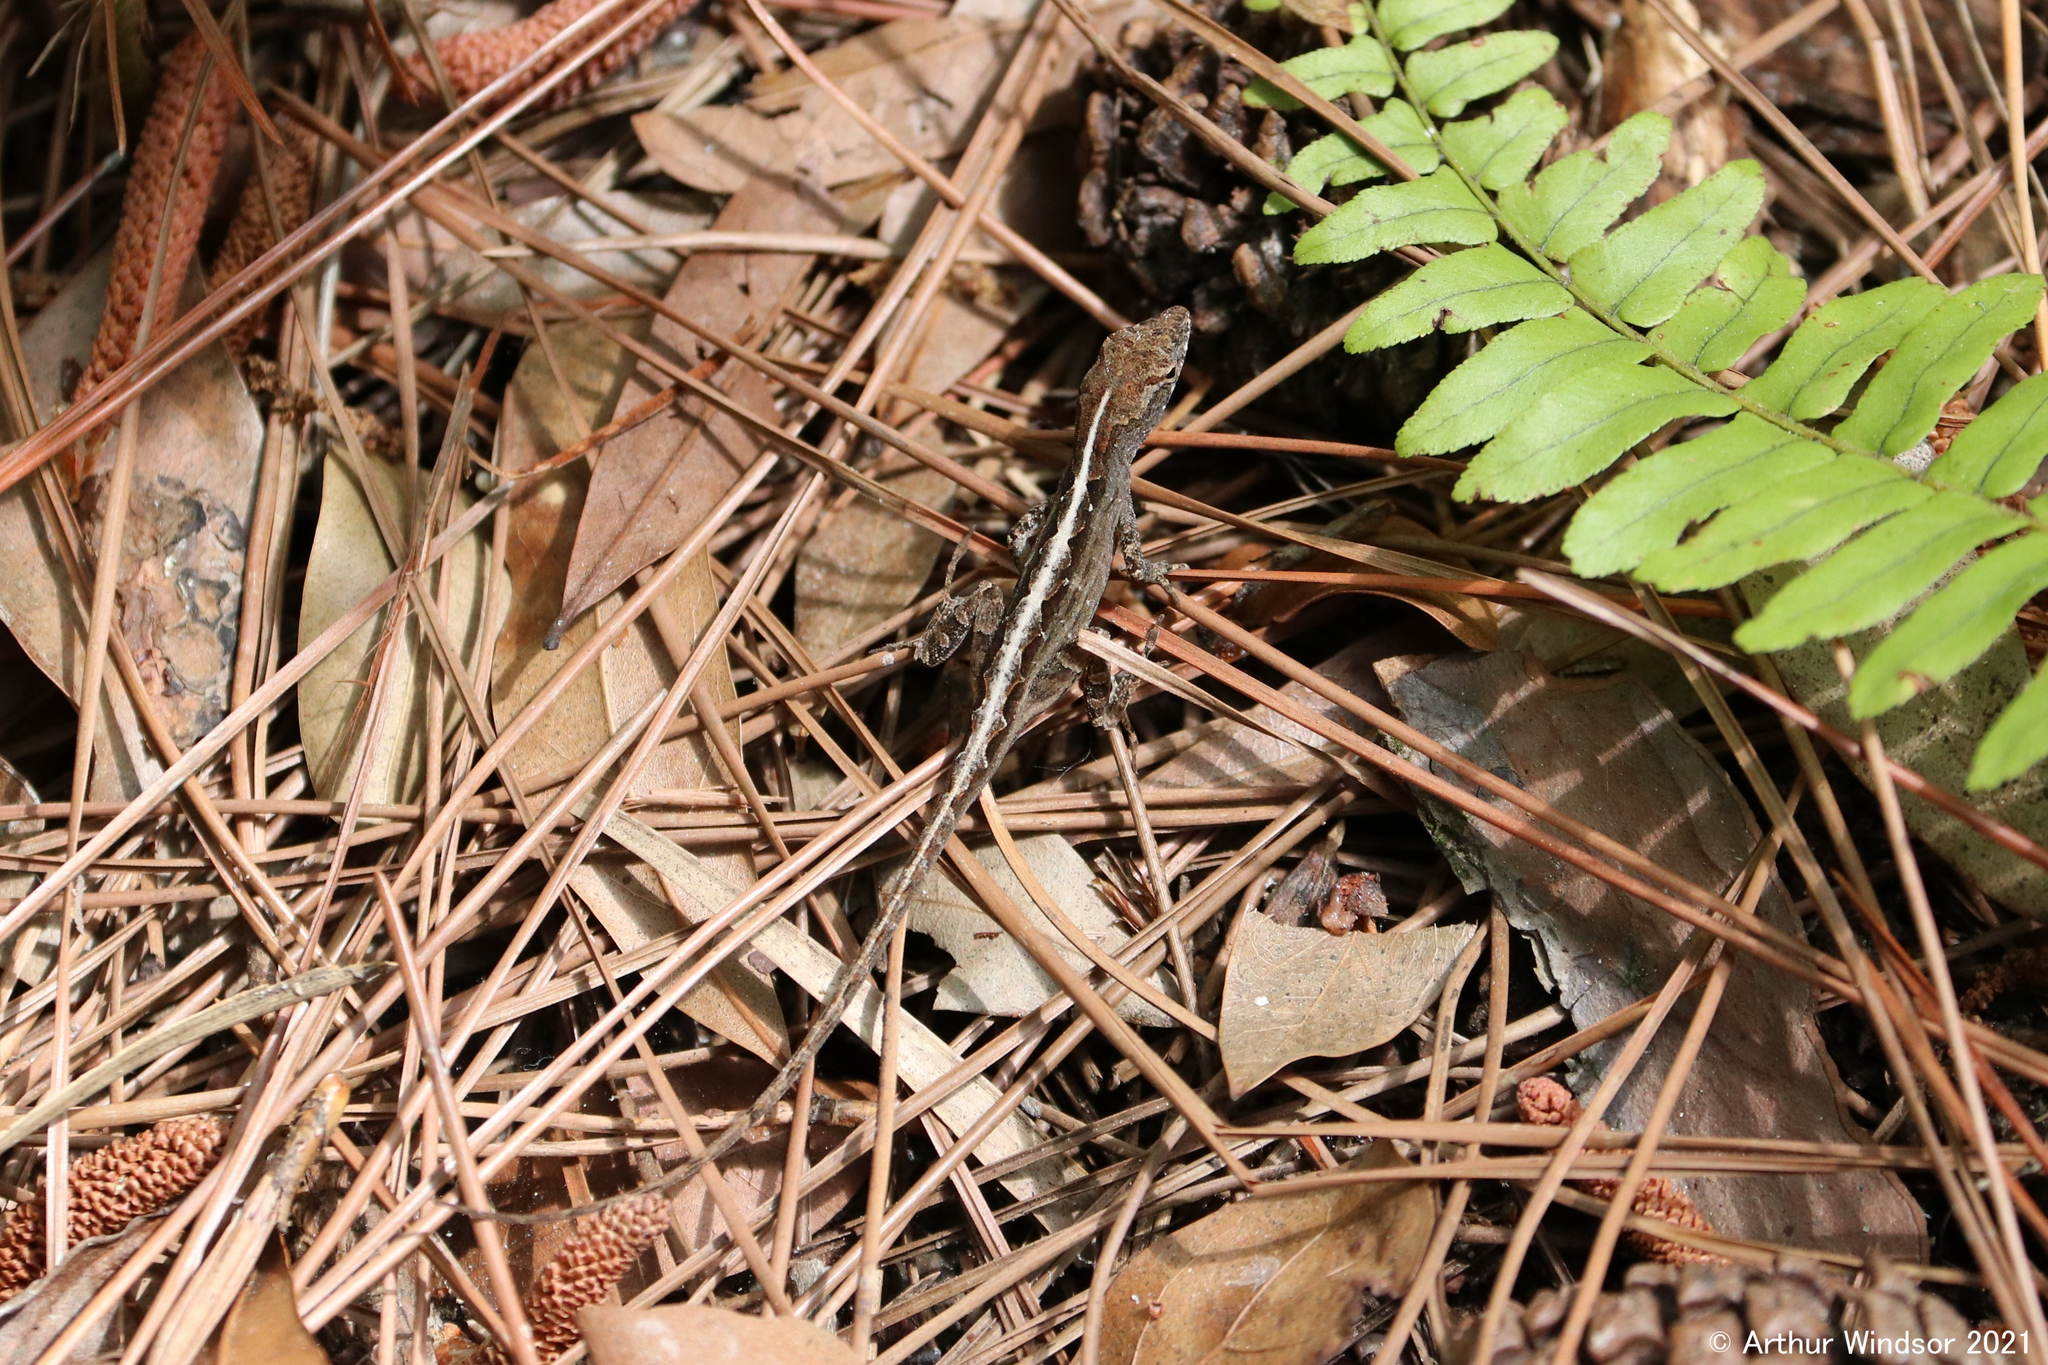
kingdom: Animalia
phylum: Chordata
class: Squamata
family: Dactyloidae
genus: Anolis
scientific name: Anolis sagrei
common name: Brown anole
